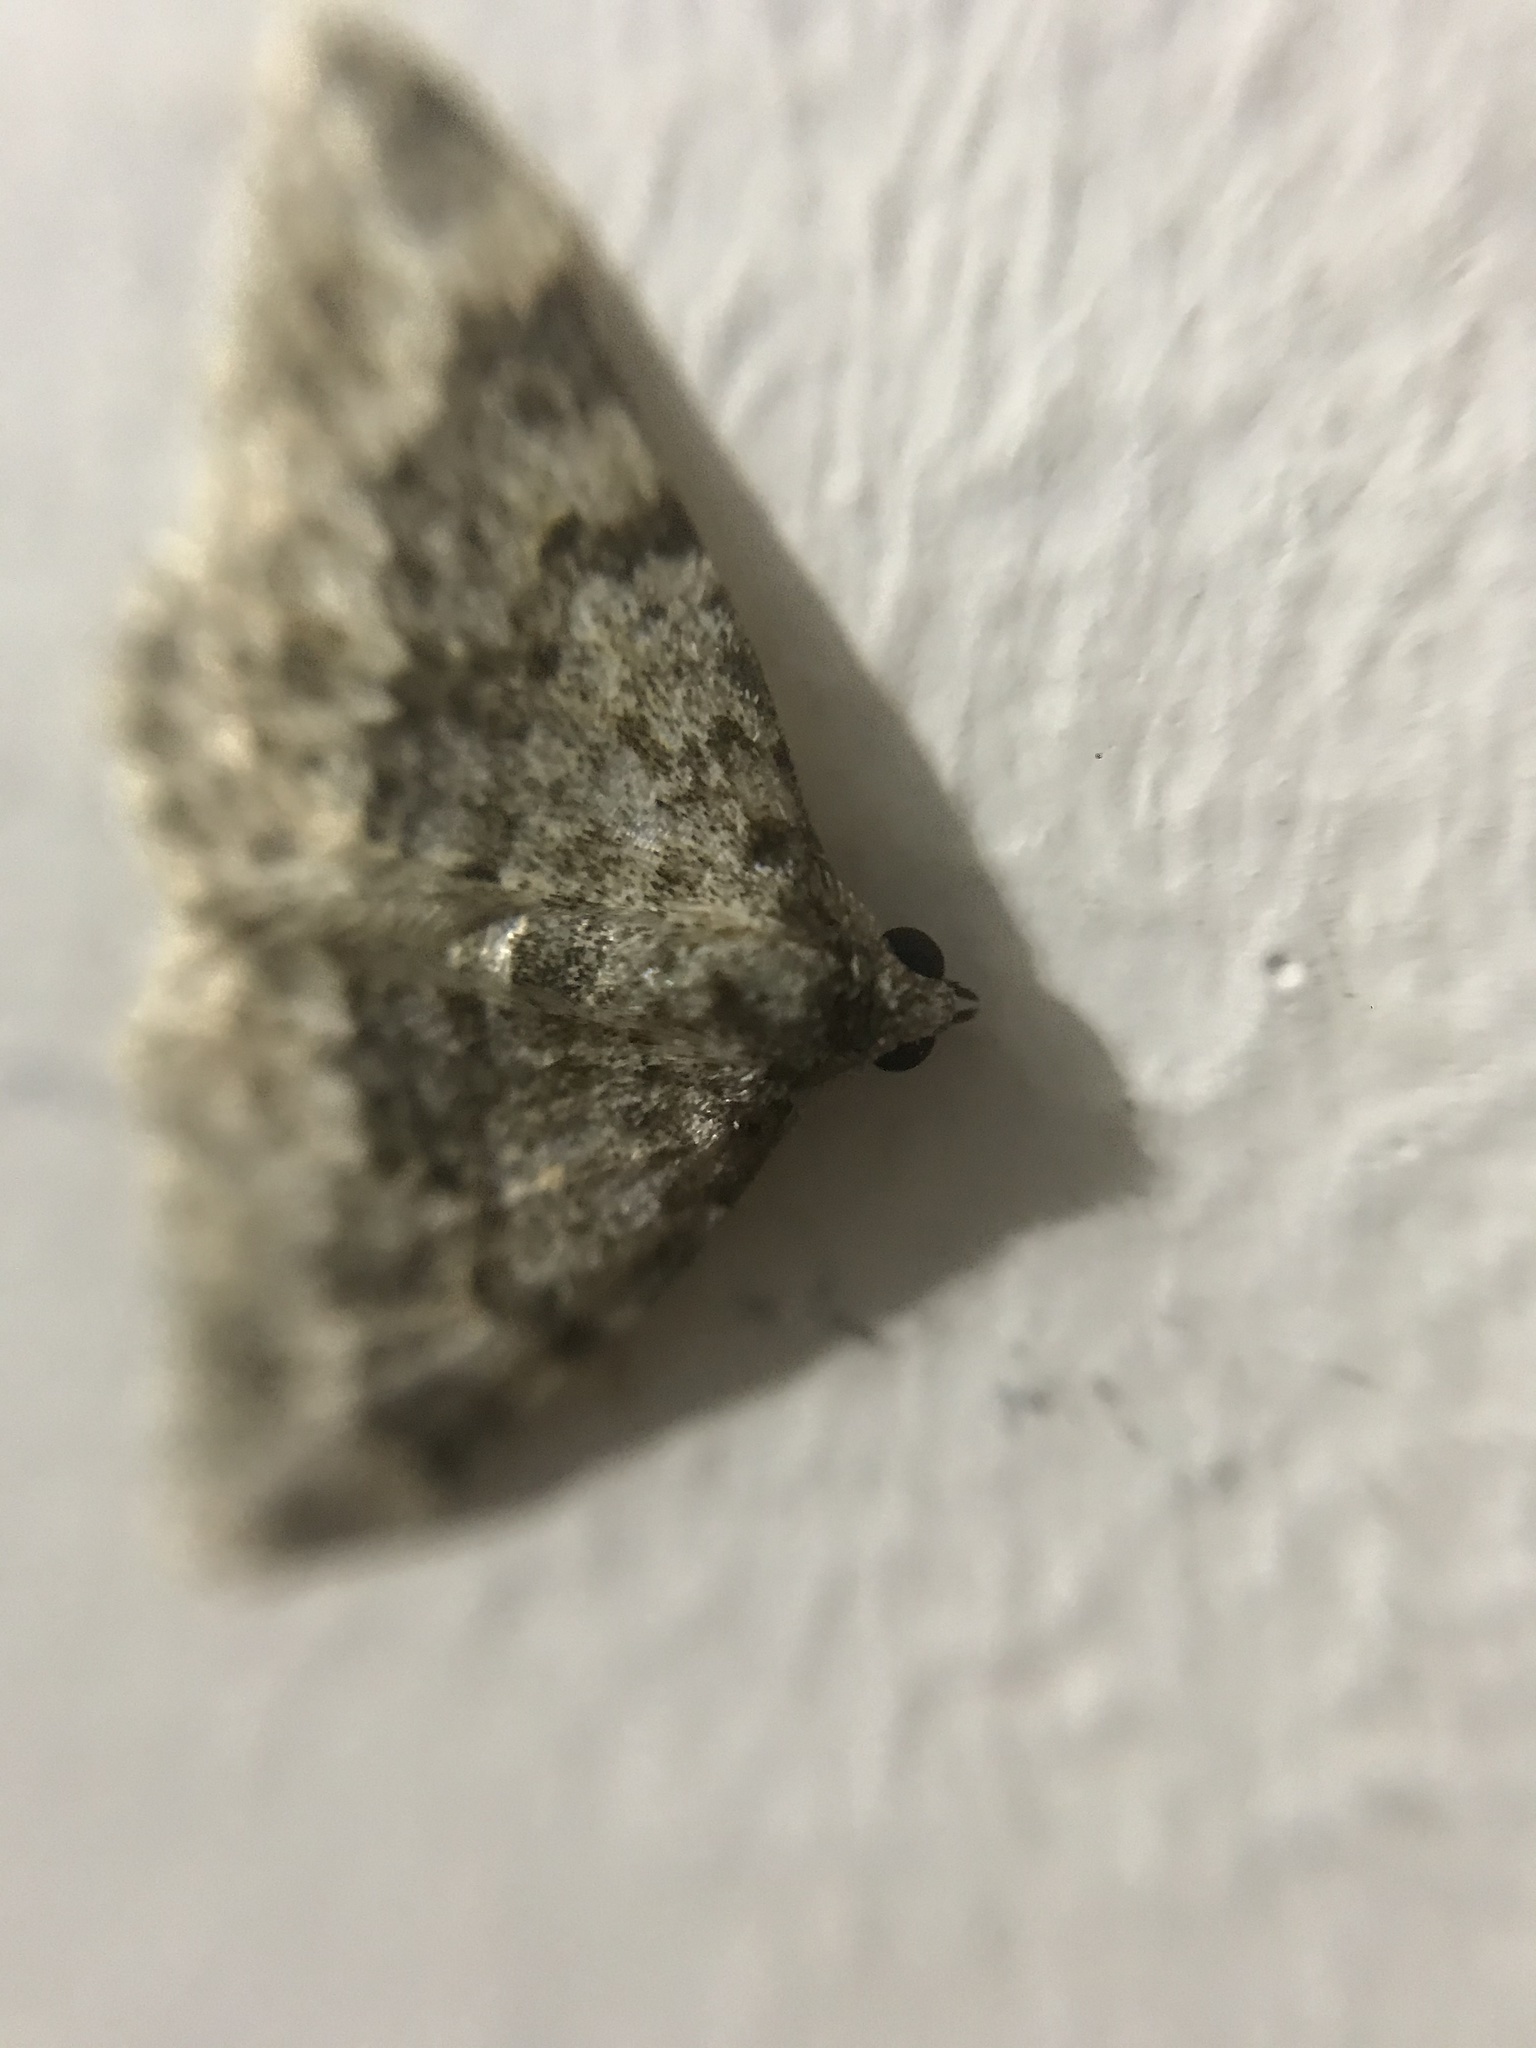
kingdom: Animalia
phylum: Arthropoda
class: Insecta
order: Lepidoptera
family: Geometridae
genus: Nebula
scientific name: Nebula salicata
